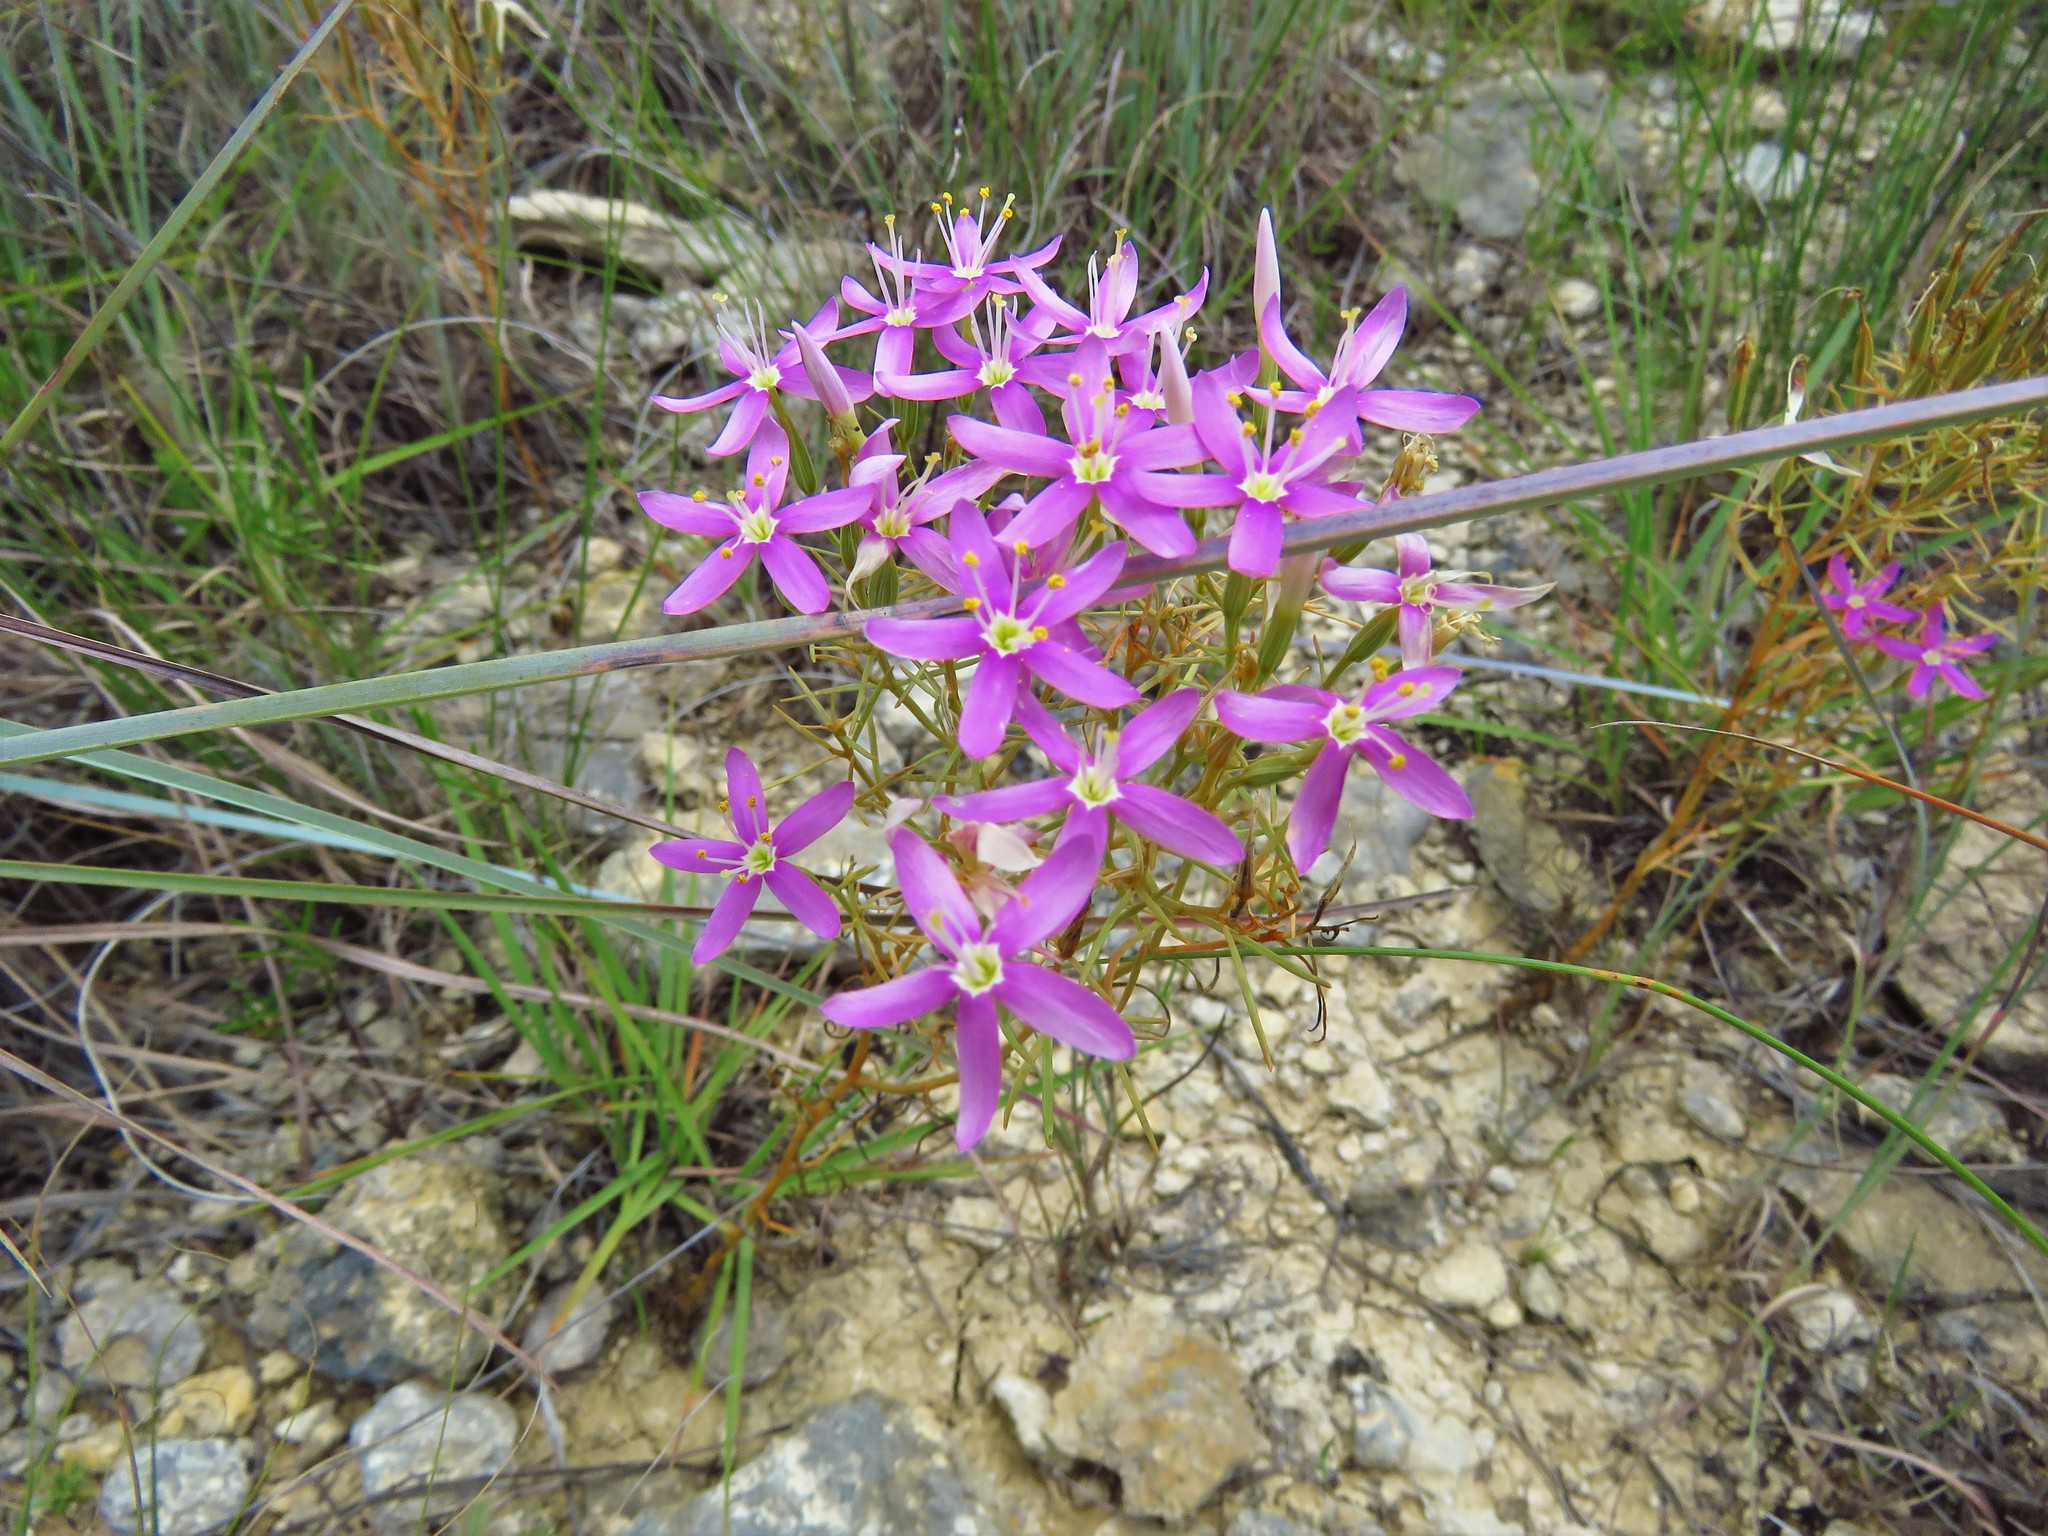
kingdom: Plantae
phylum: Tracheophyta
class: Magnoliopsida
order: Gentianales
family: Gentianaceae
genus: Zeltnera
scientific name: Zeltnera beyrichii
